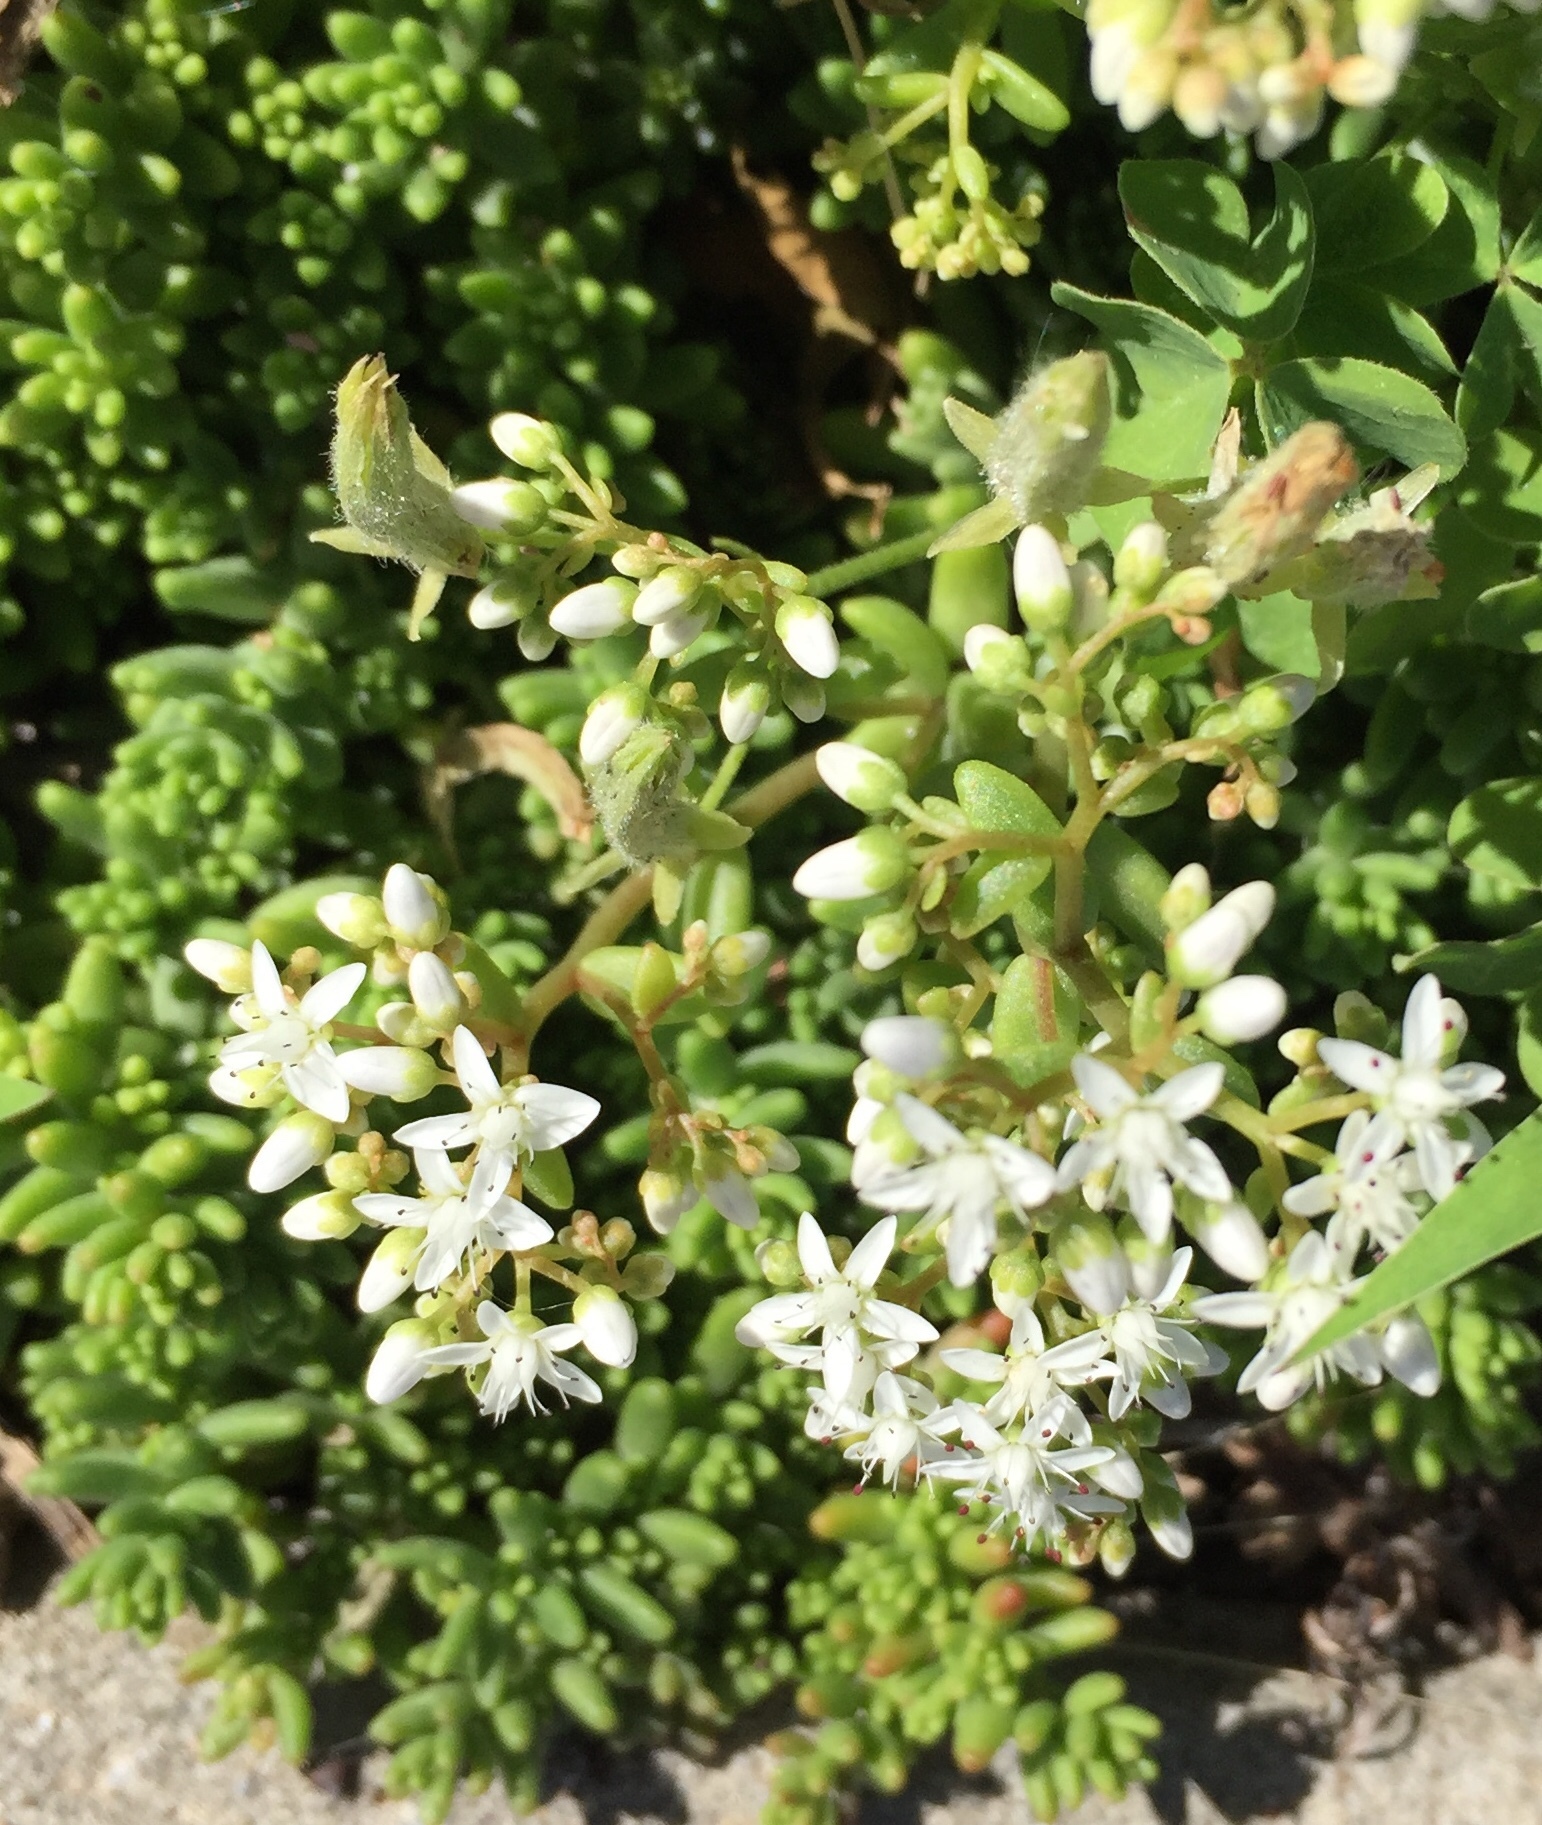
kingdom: Plantae
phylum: Tracheophyta
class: Magnoliopsida
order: Saxifragales
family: Crassulaceae
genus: Sedum
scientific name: Sedum album
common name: White stonecrop
